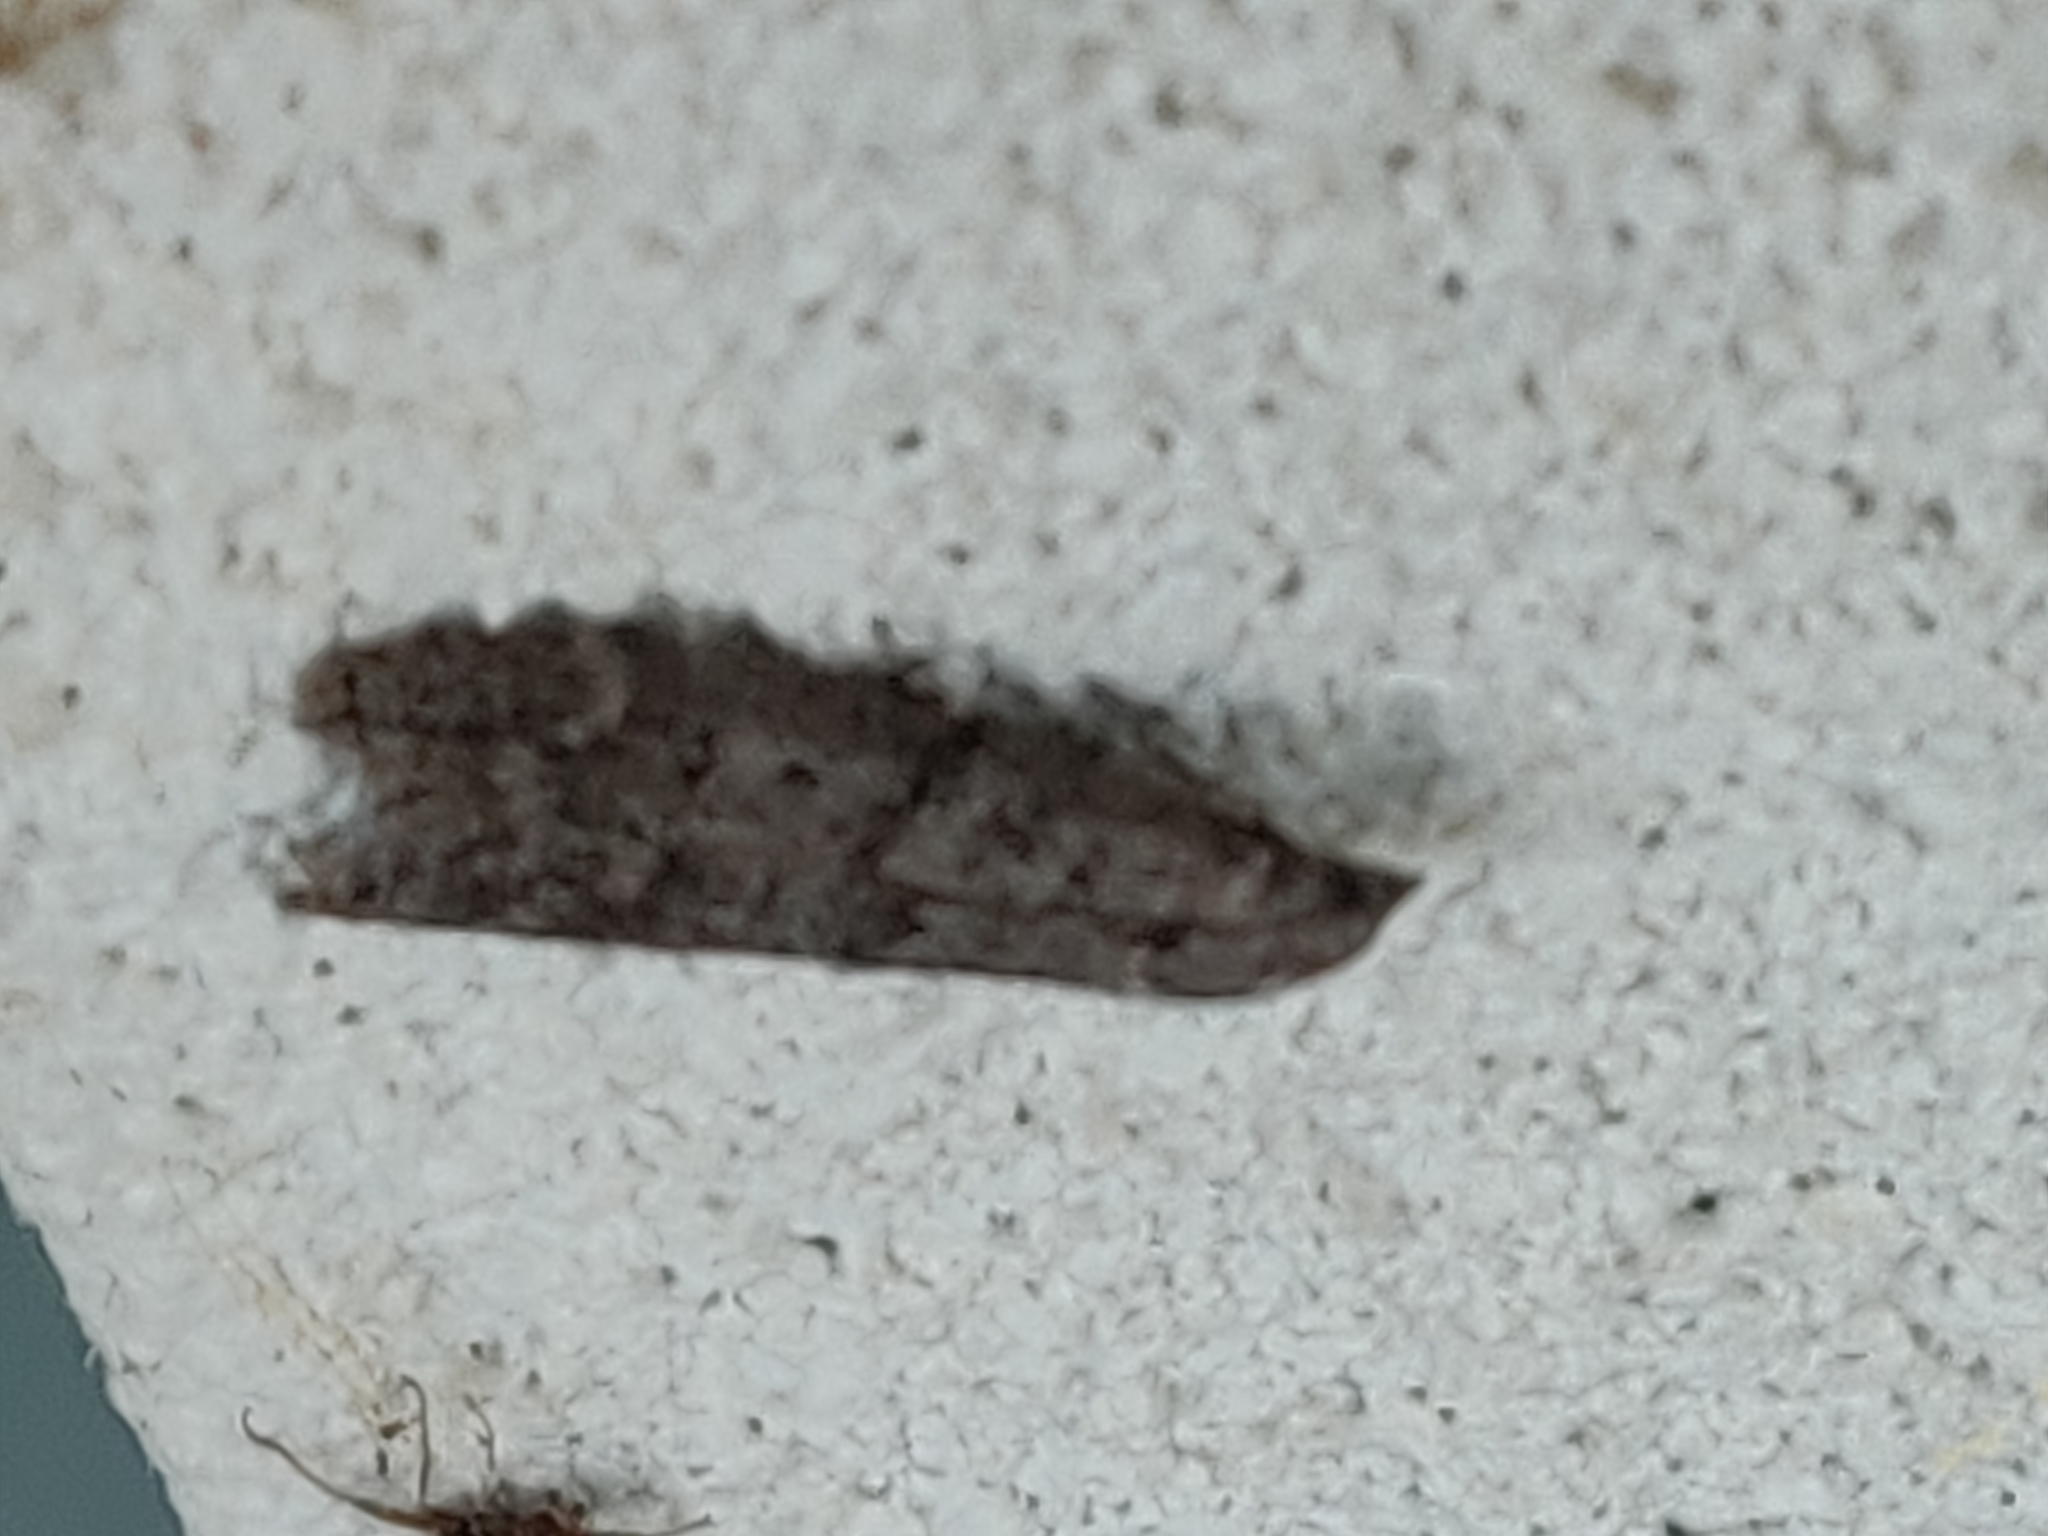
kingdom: Animalia
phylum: Arthropoda
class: Insecta
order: Lepidoptera
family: Pyralidae
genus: Heteromicta
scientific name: Heteromicta pachytera
